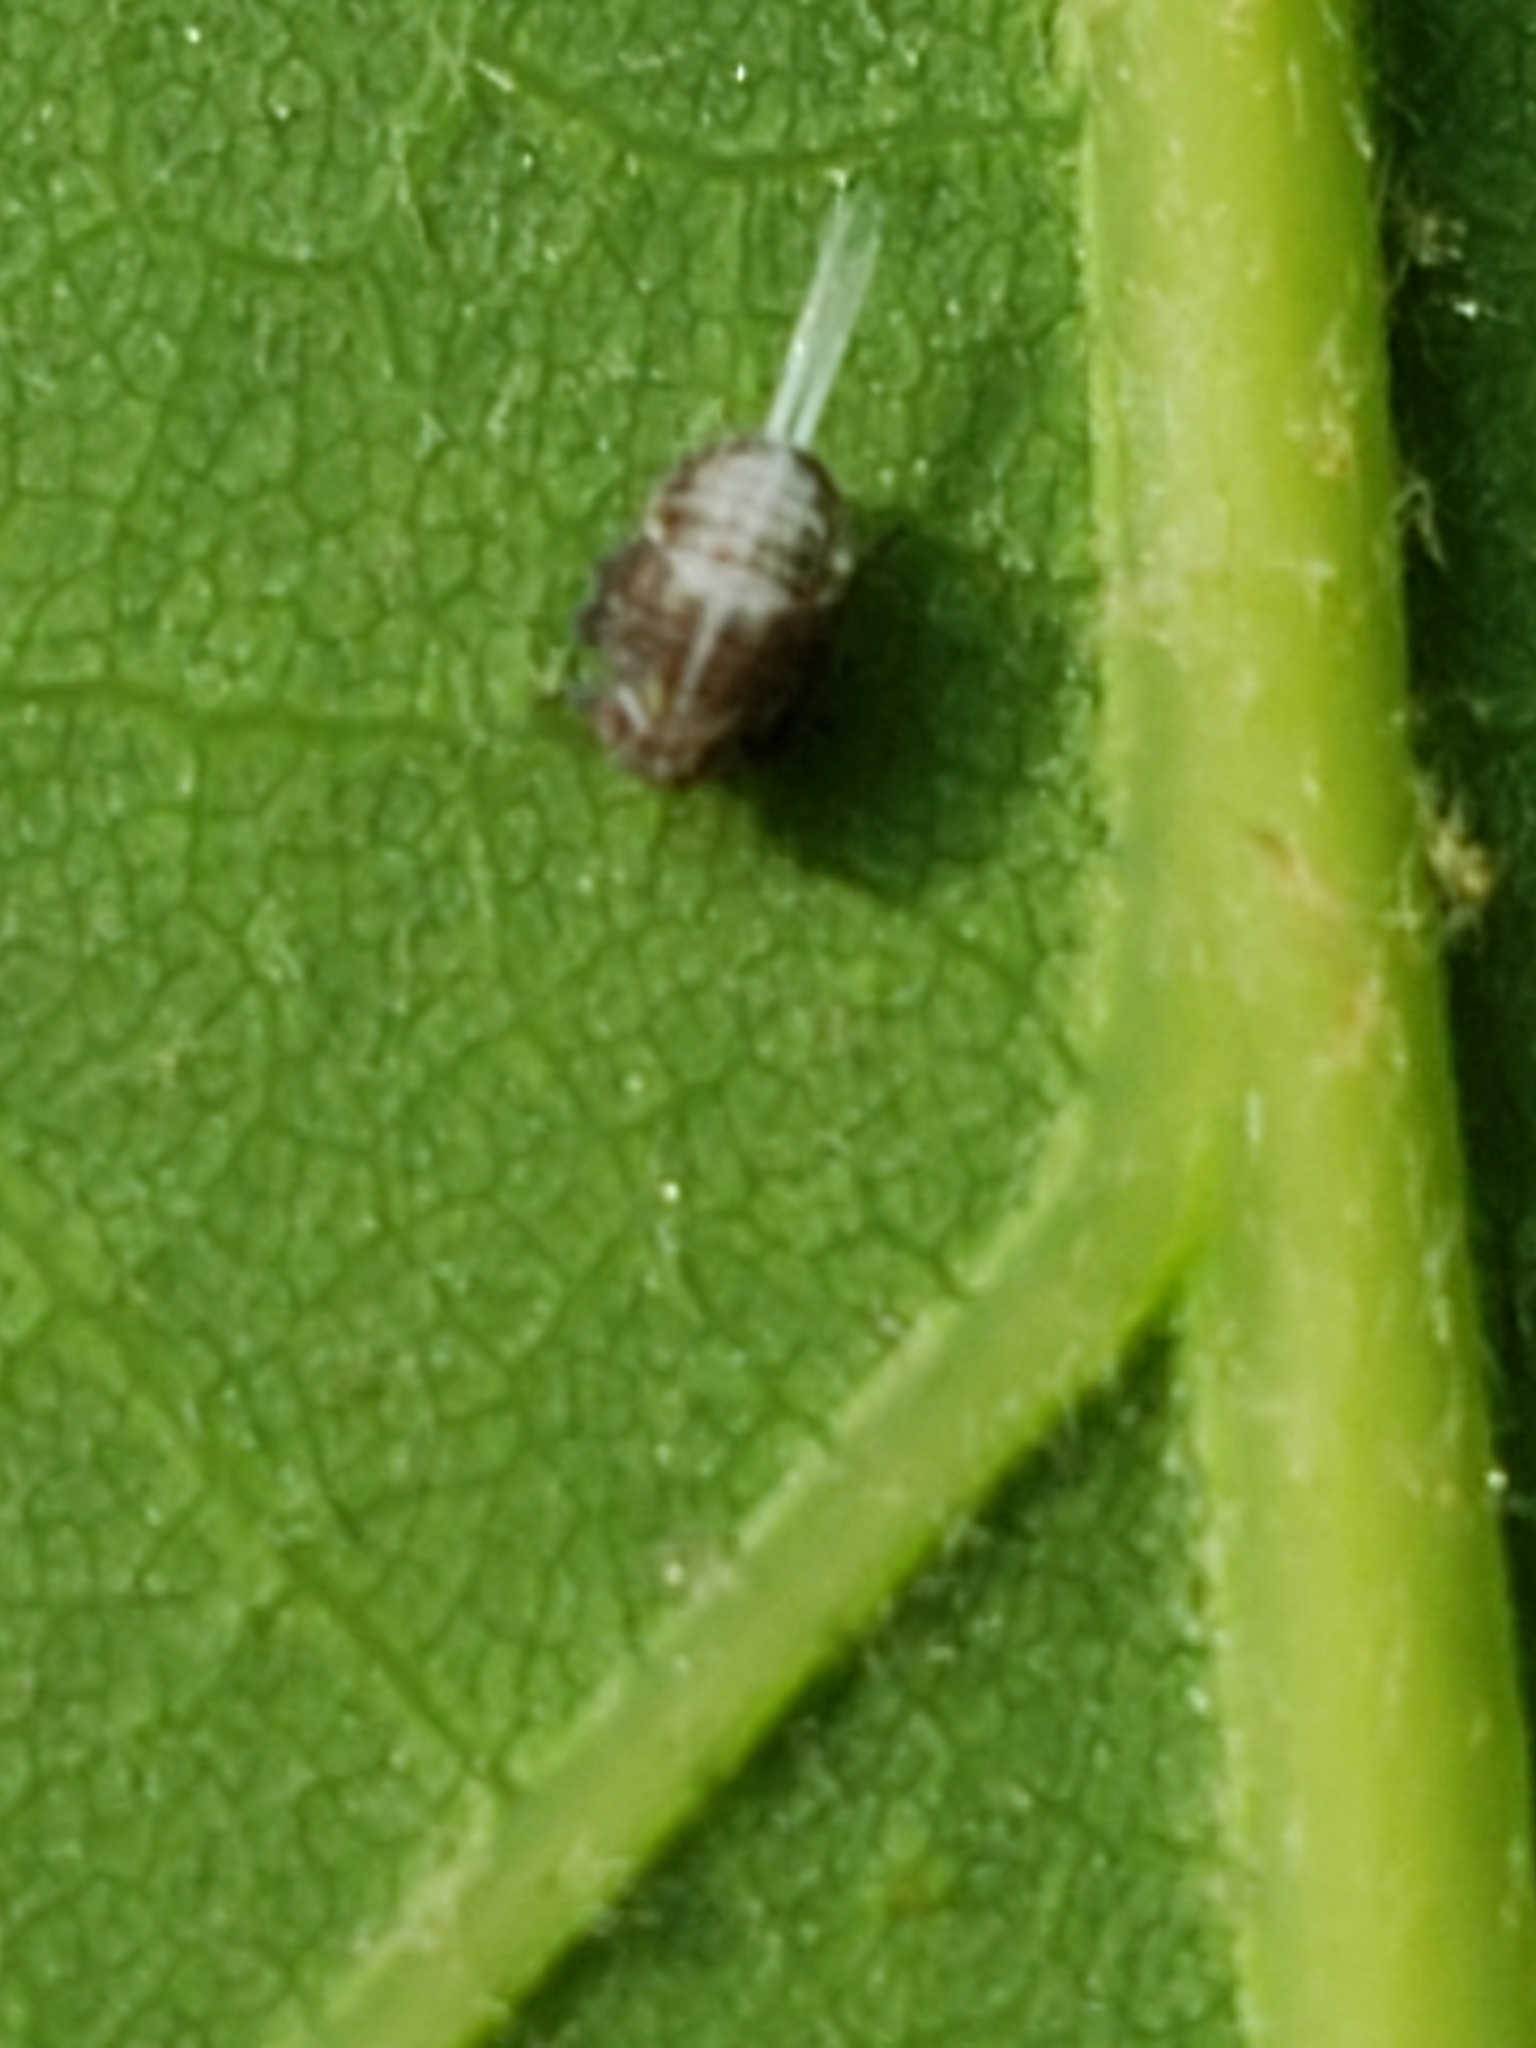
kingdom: Animalia
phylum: Arthropoda
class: Insecta
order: Hemiptera
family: Issidae
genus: Thionia
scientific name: Thionia elliptica
